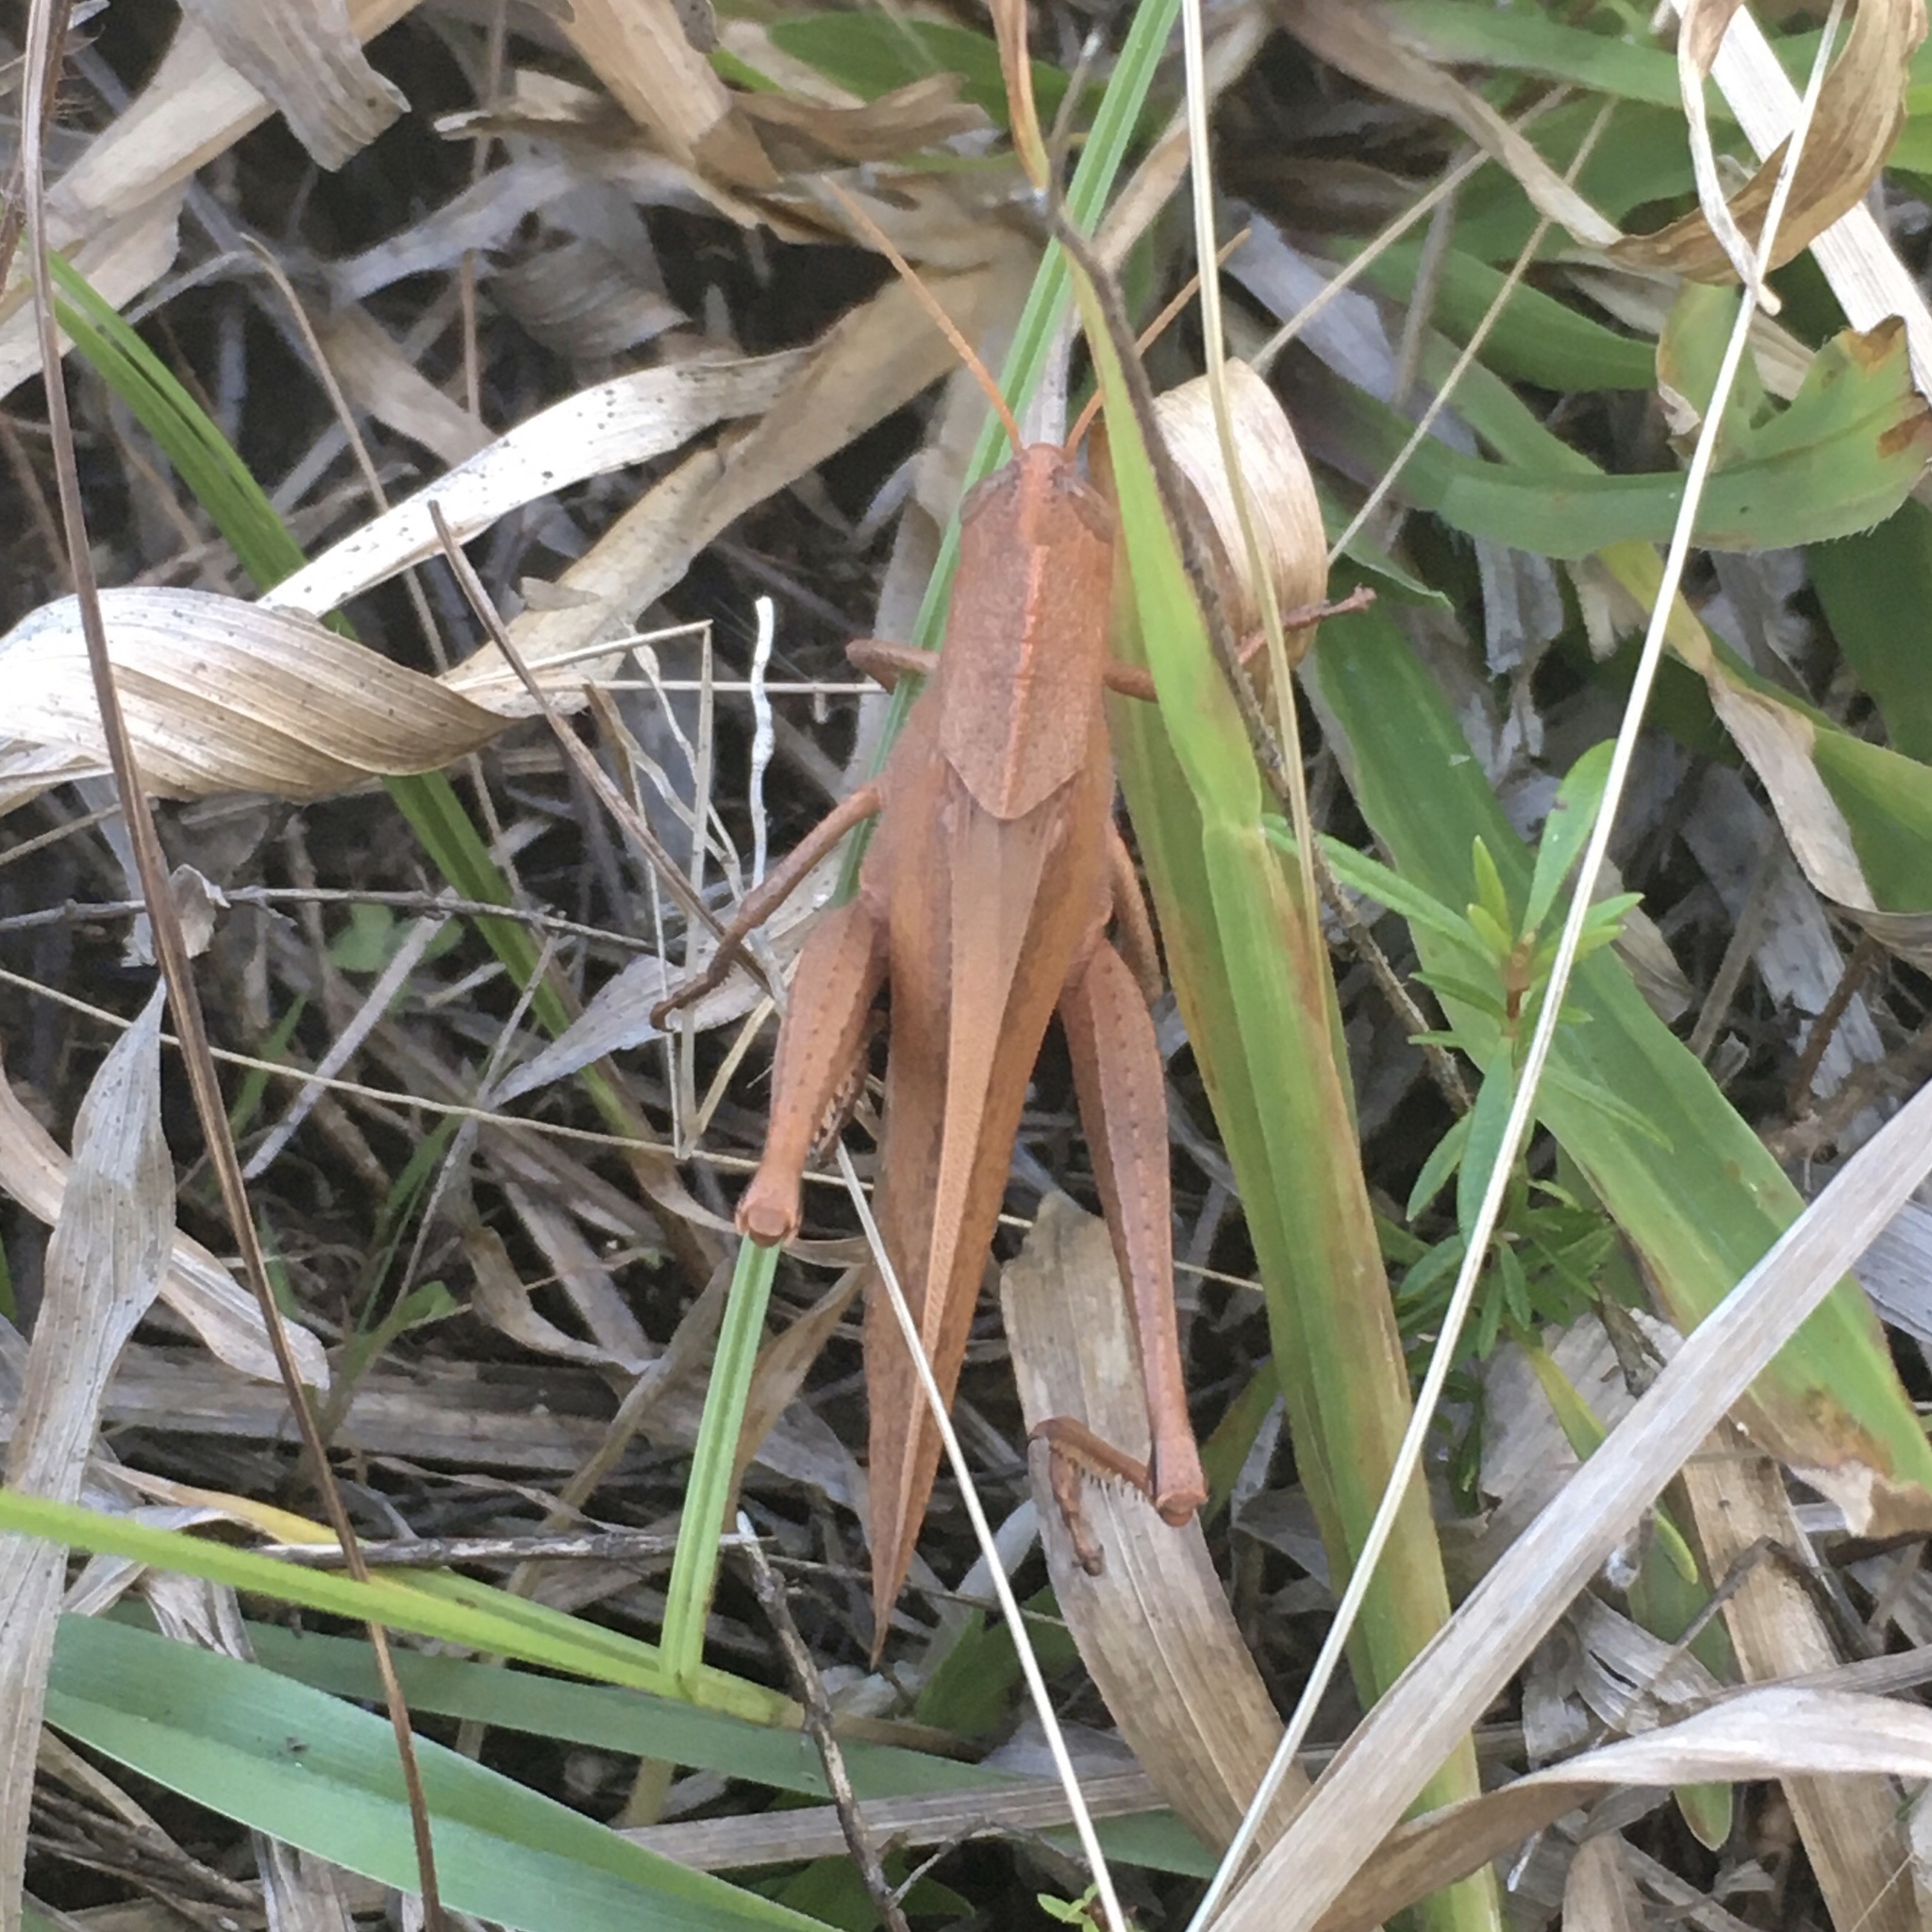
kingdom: Animalia
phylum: Arthropoda
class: Insecta
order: Orthoptera
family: Acrididae
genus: Schistocerca
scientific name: Schistocerca damnifica
